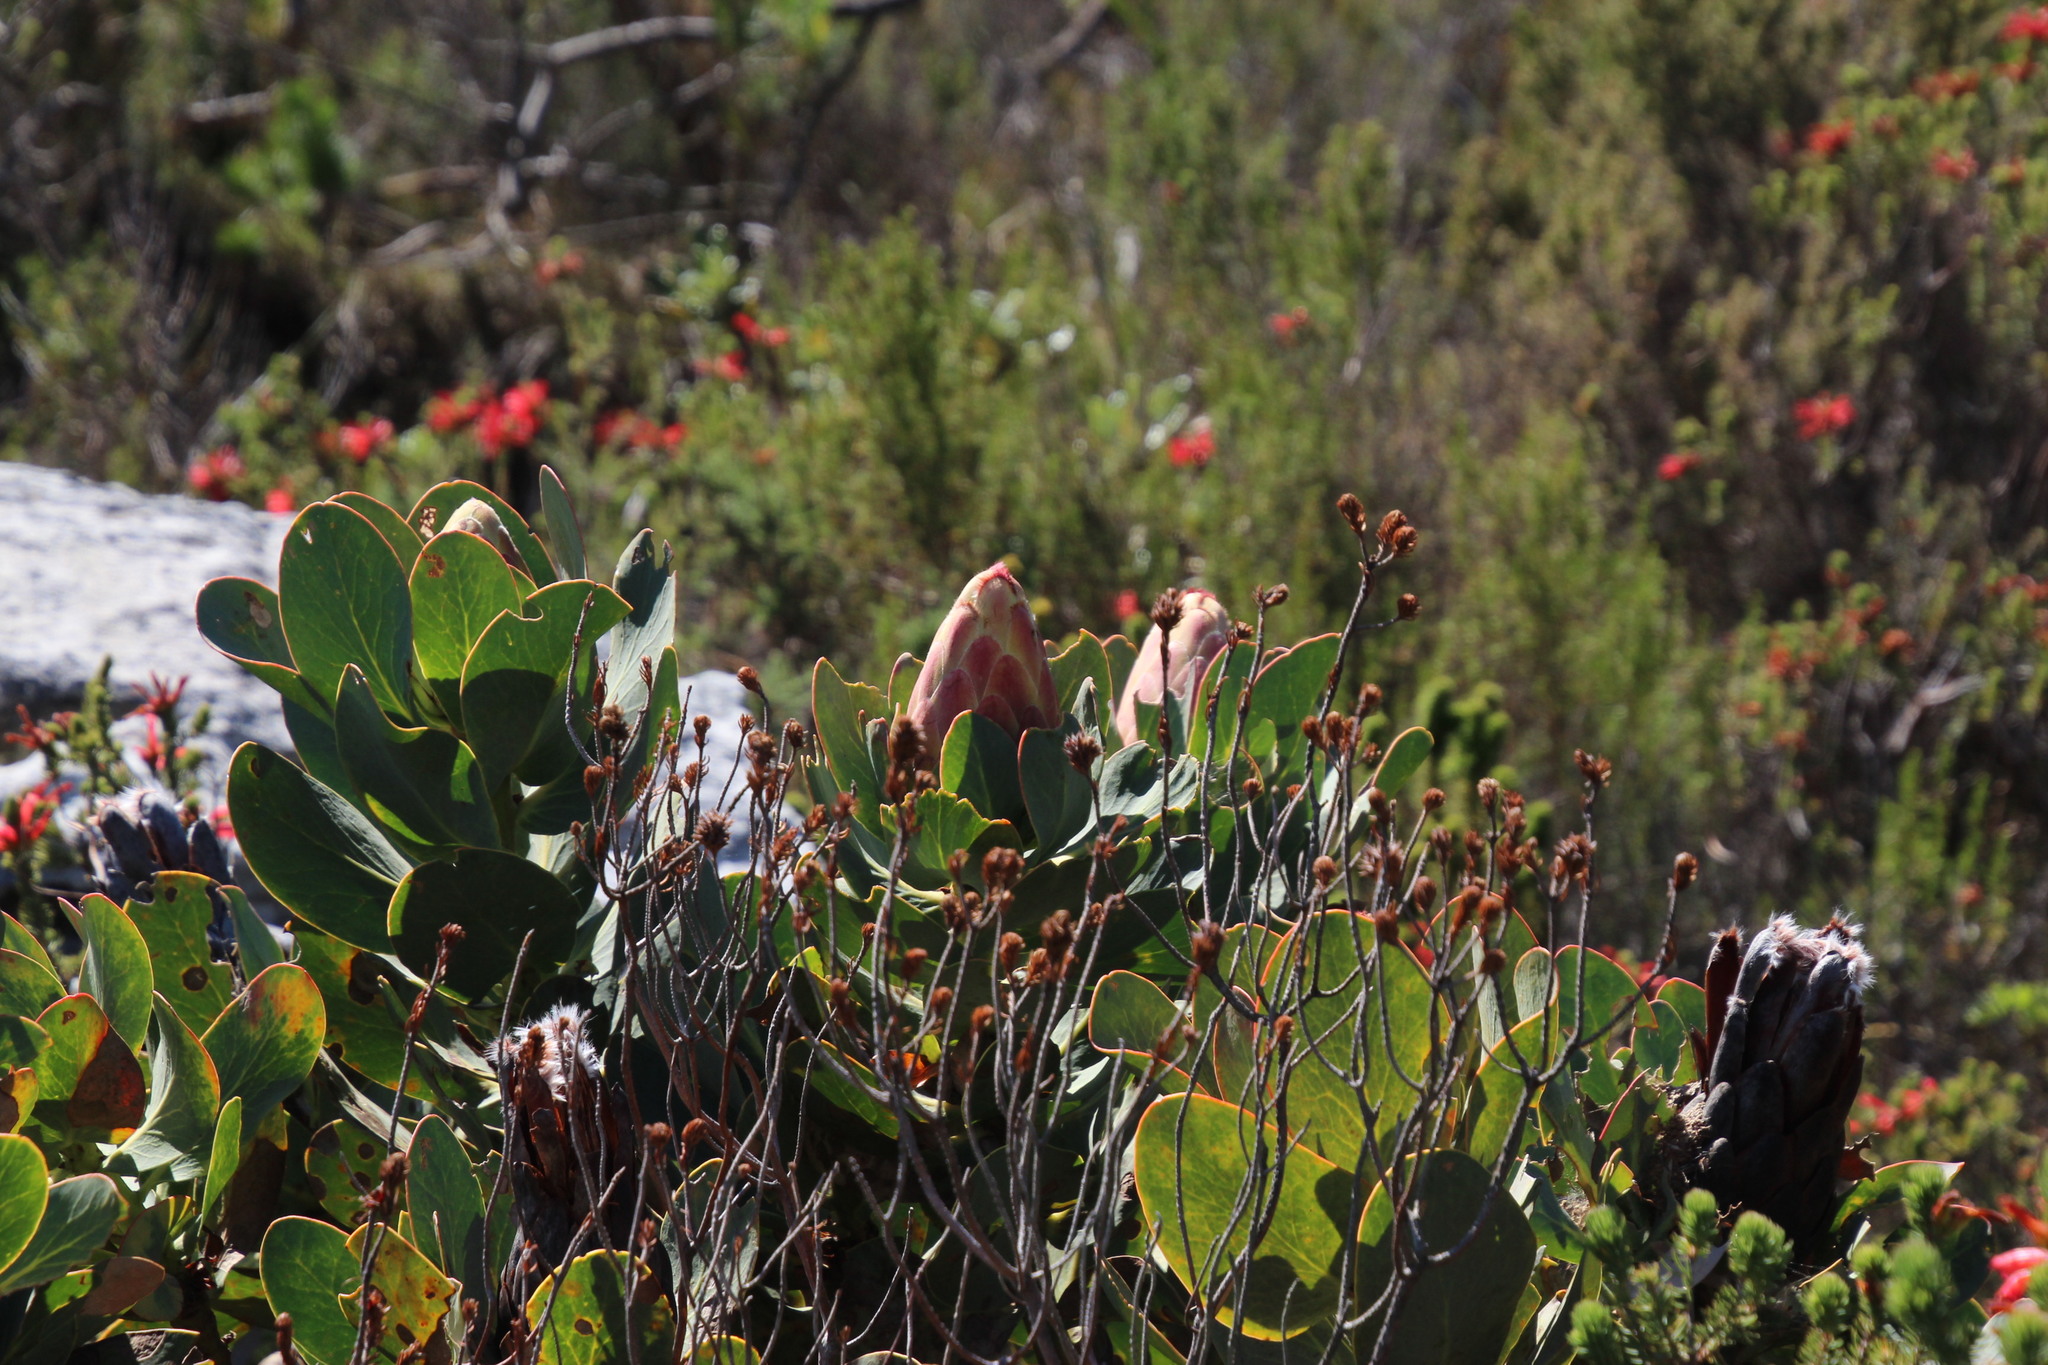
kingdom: Plantae
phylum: Tracheophyta
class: Magnoliopsida
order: Proteales
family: Proteaceae
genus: Protea
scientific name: Protea grandiceps
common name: Red sugarbush
